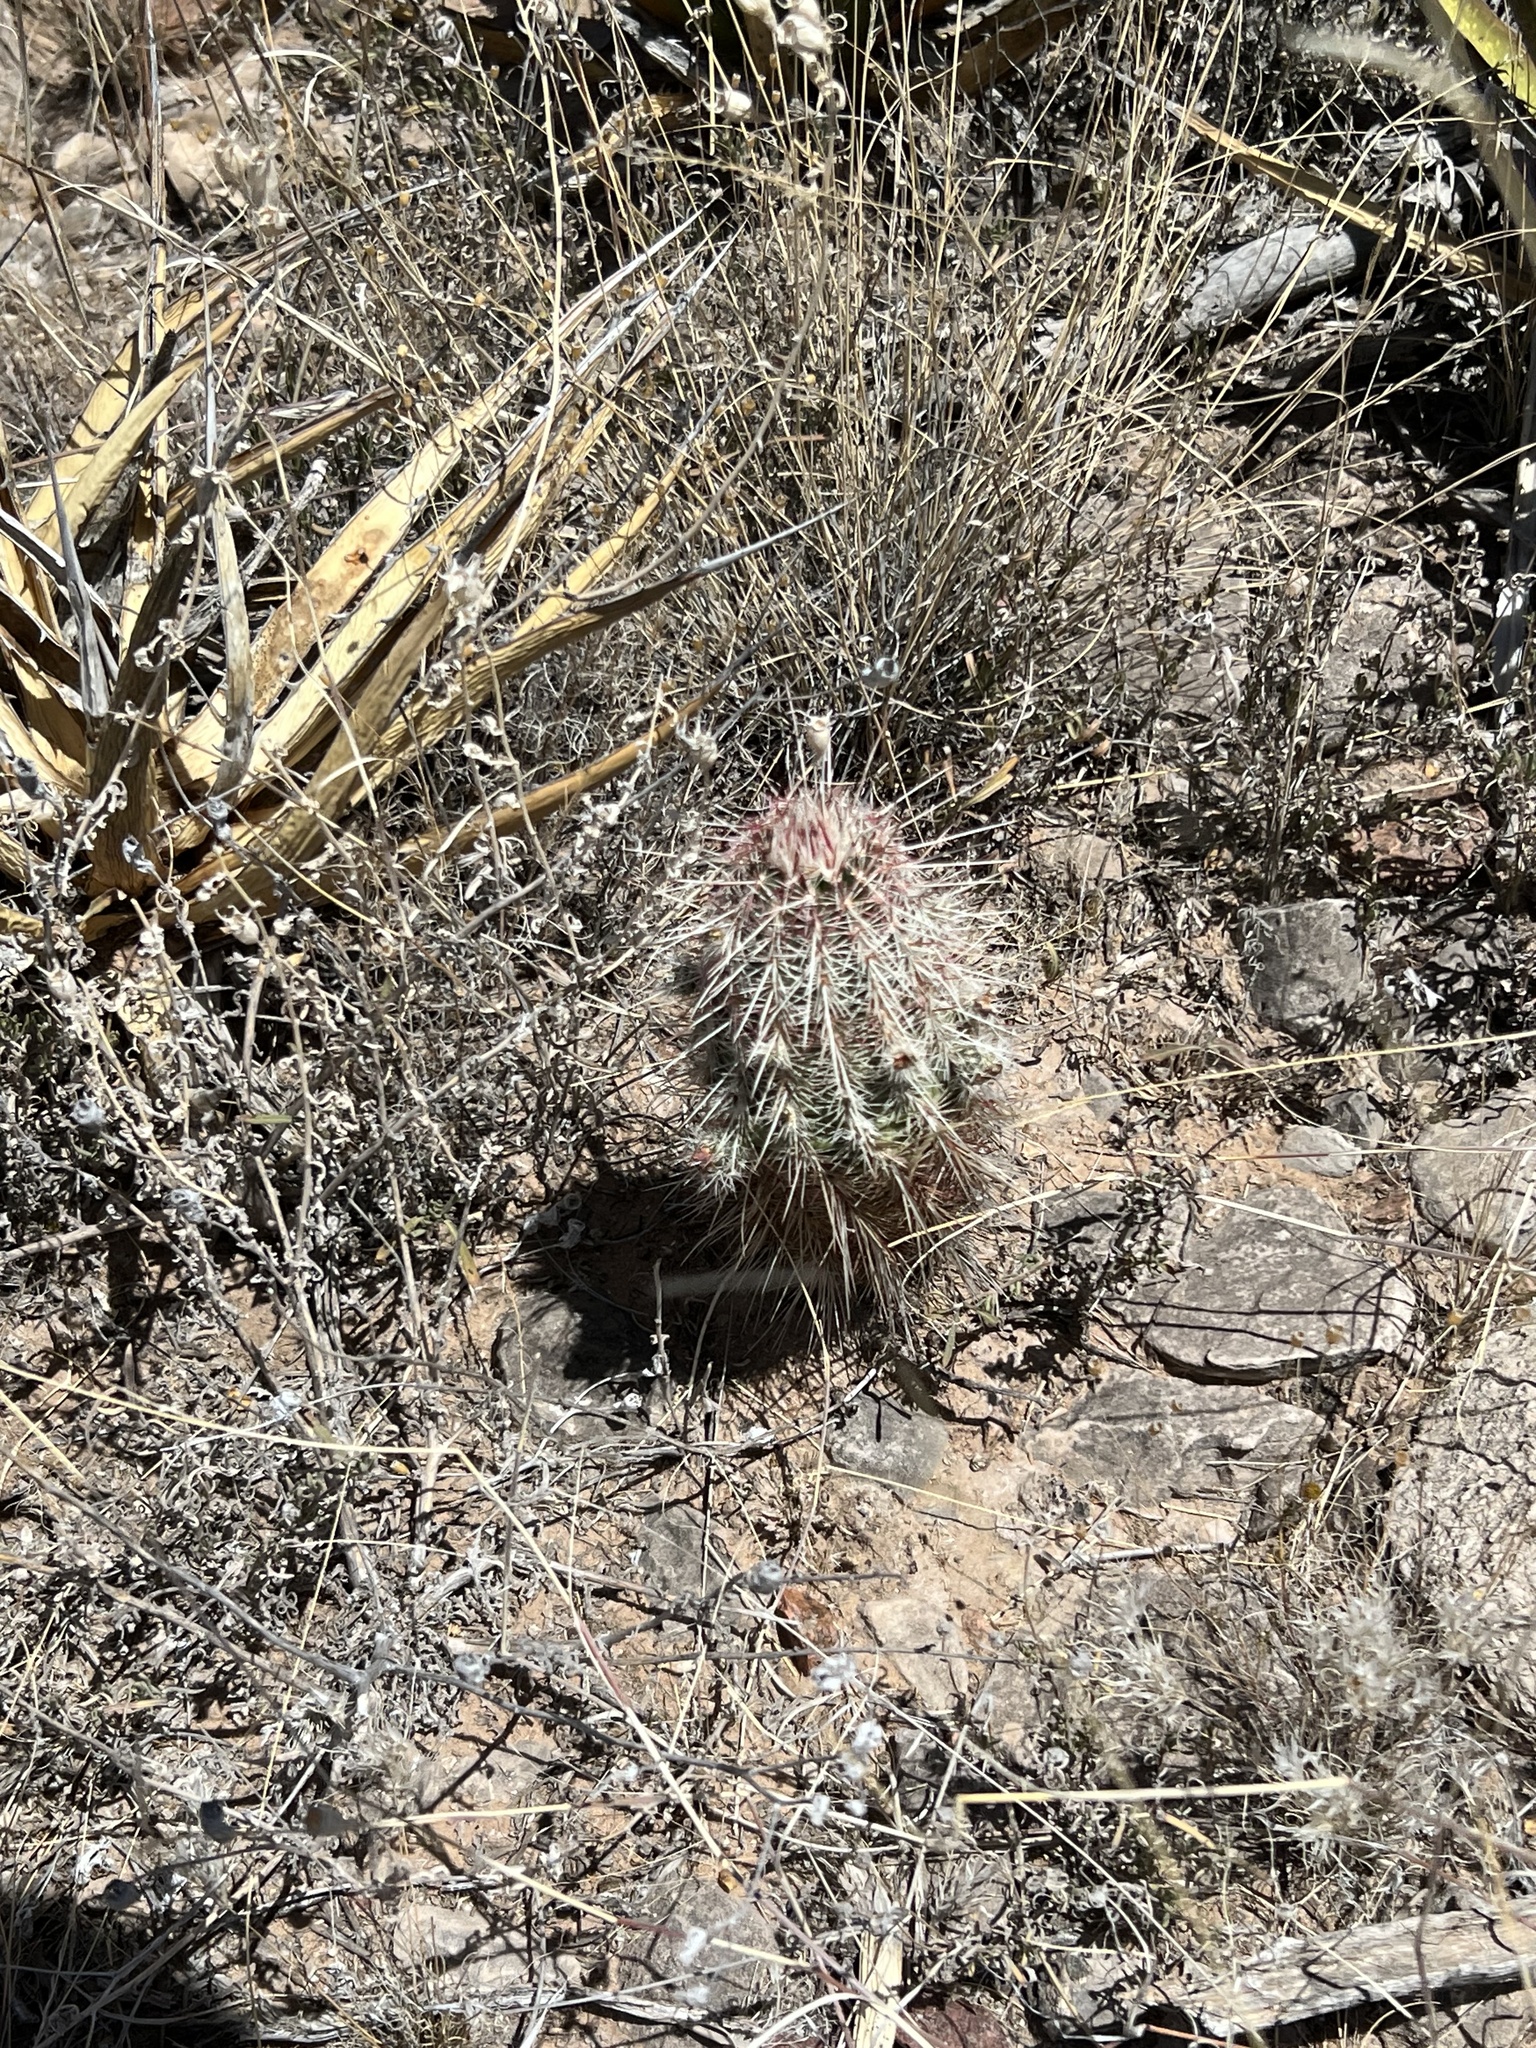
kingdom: Plantae
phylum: Tracheophyta
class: Magnoliopsida
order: Caryophyllales
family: Cactaceae
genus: Echinocereus
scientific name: Echinocereus viridiflorus
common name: Nylon hedgehog cactus
